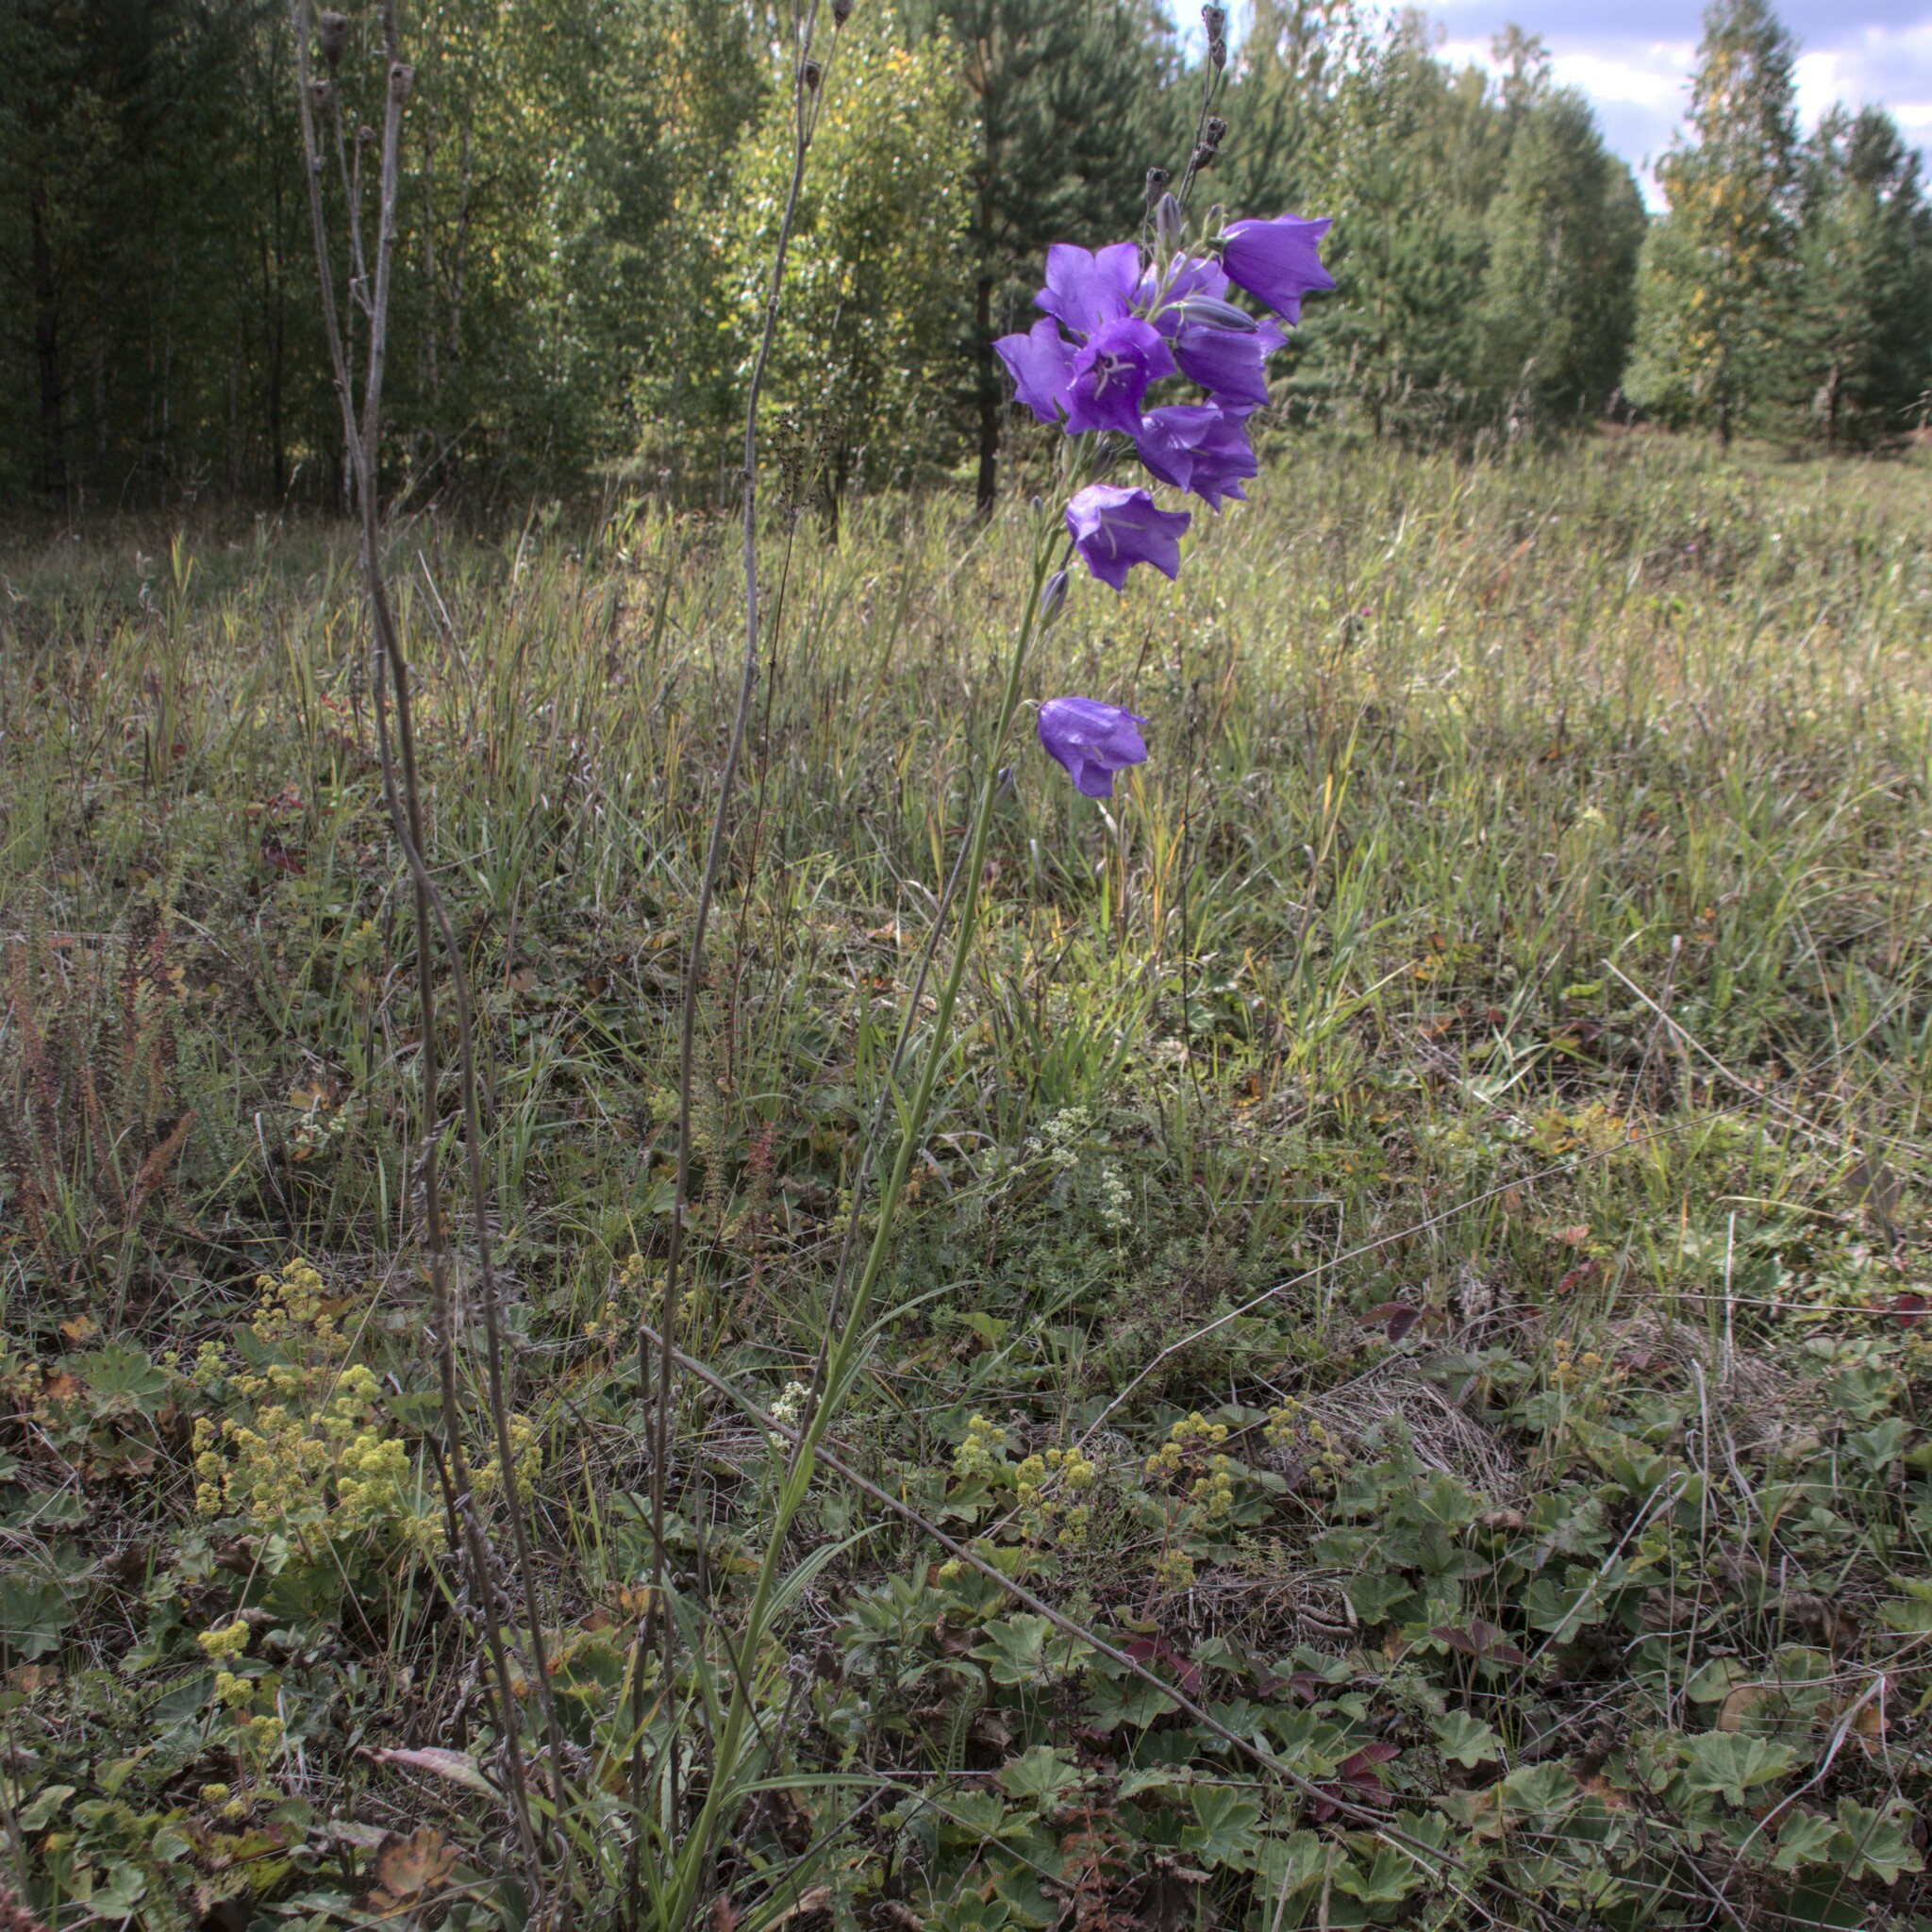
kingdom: Plantae
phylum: Tracheophyta
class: Magnoliopsida
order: Asterales
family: Campanulaceae
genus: Campanula
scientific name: Campanula persicifolia
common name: Peach-leaved bellflower
